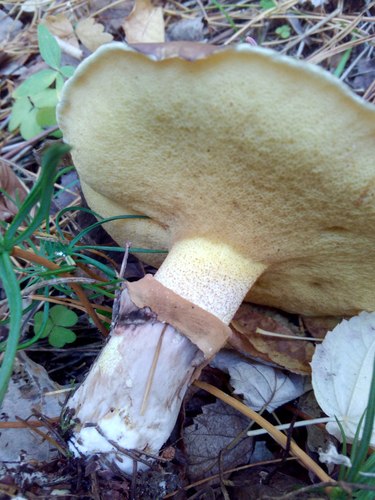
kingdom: Fungi
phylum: Basidiomycota
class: Agaricomycetes
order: Boletales
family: Suillaceae
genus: Suillus
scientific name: Suillus luteus
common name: Slippery jack
